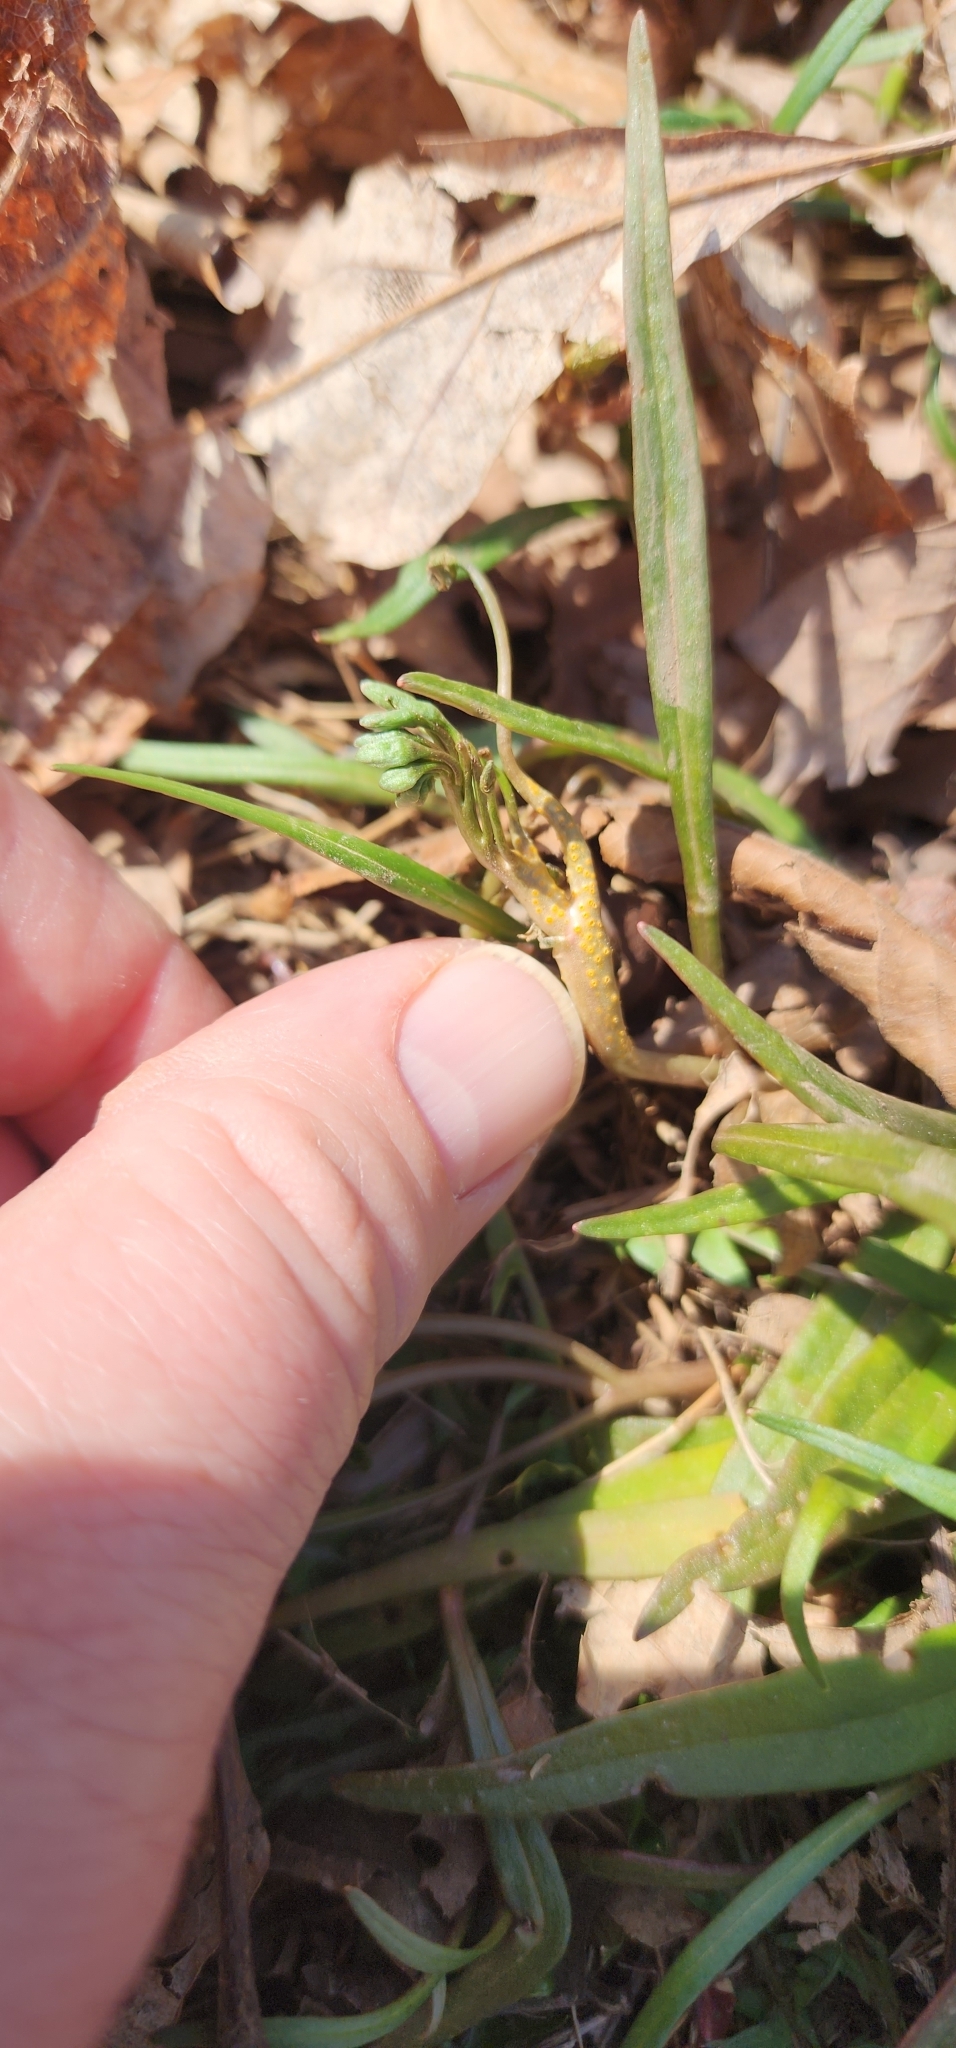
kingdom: Fungi
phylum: Basidiomycota
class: Pucciniomycetes
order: Pucciniales
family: Pucciniaceae
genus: Puccinia
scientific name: Puccinia mariae-wilsoniae
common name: Spring beauty rust
